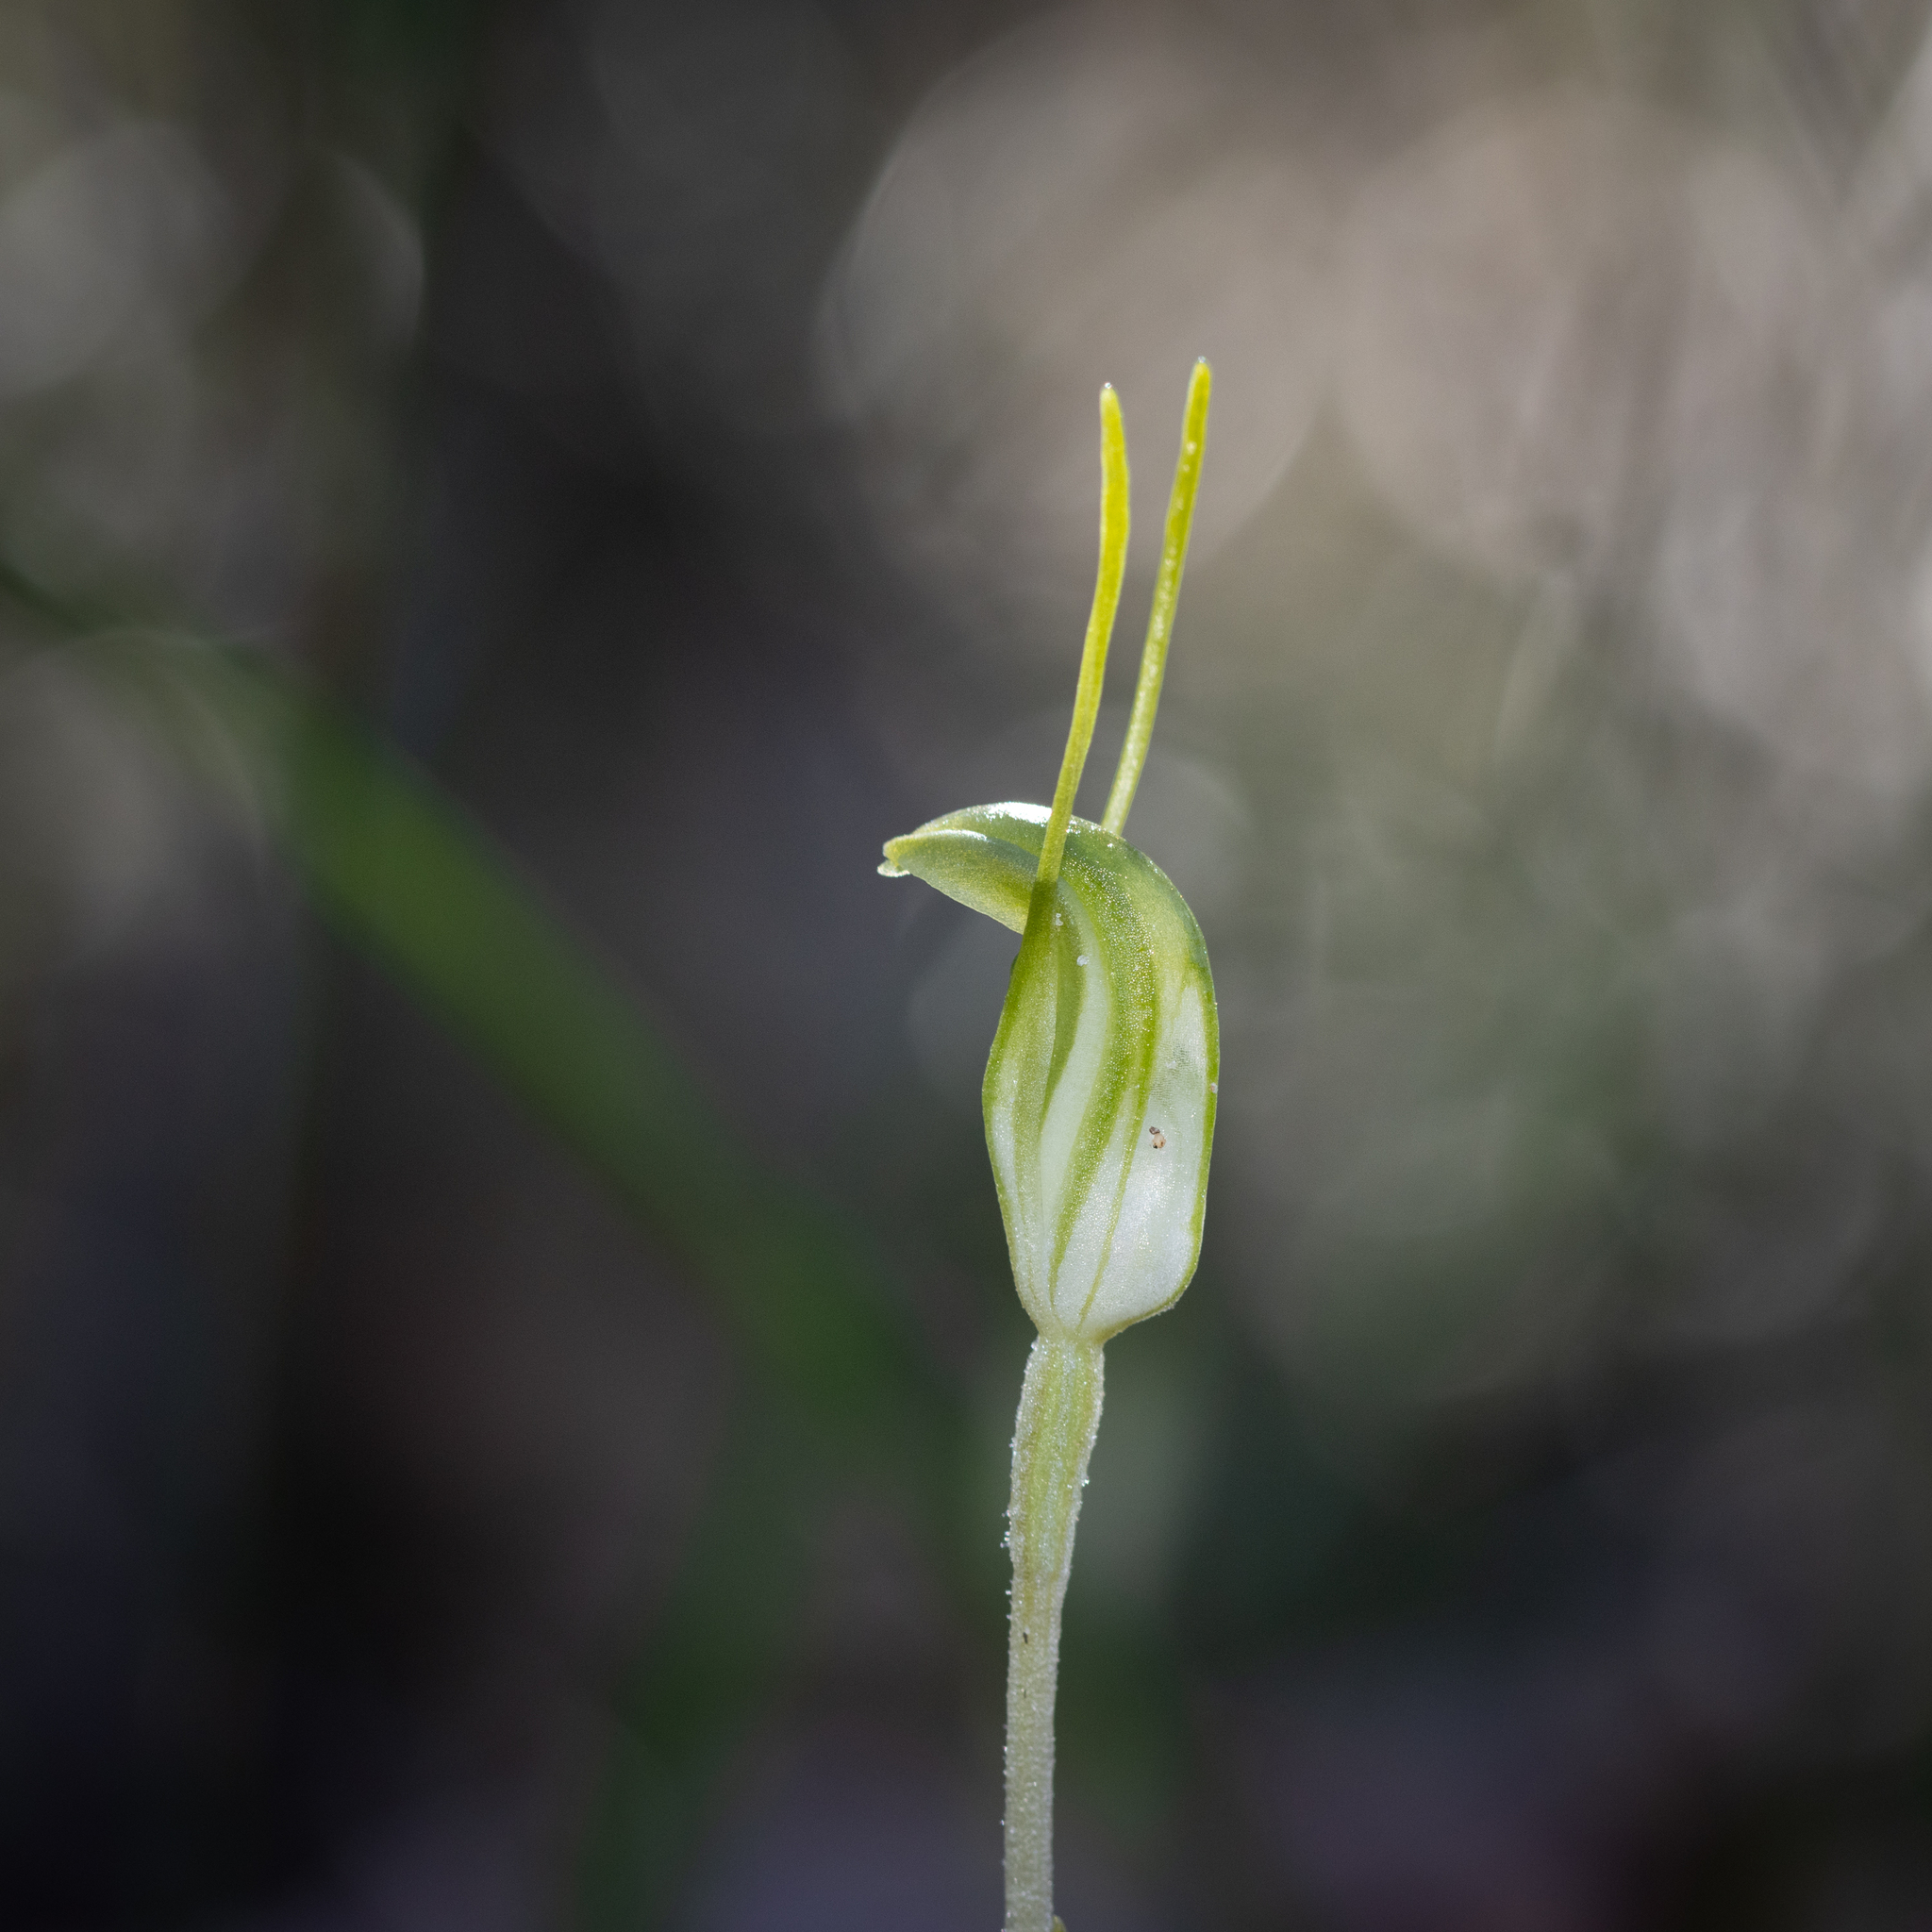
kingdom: Plantae
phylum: Tracheophyta
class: Liliopsida
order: Asparagales
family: Orchidaceae
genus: Pterostylis
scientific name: Pterostylis nana
